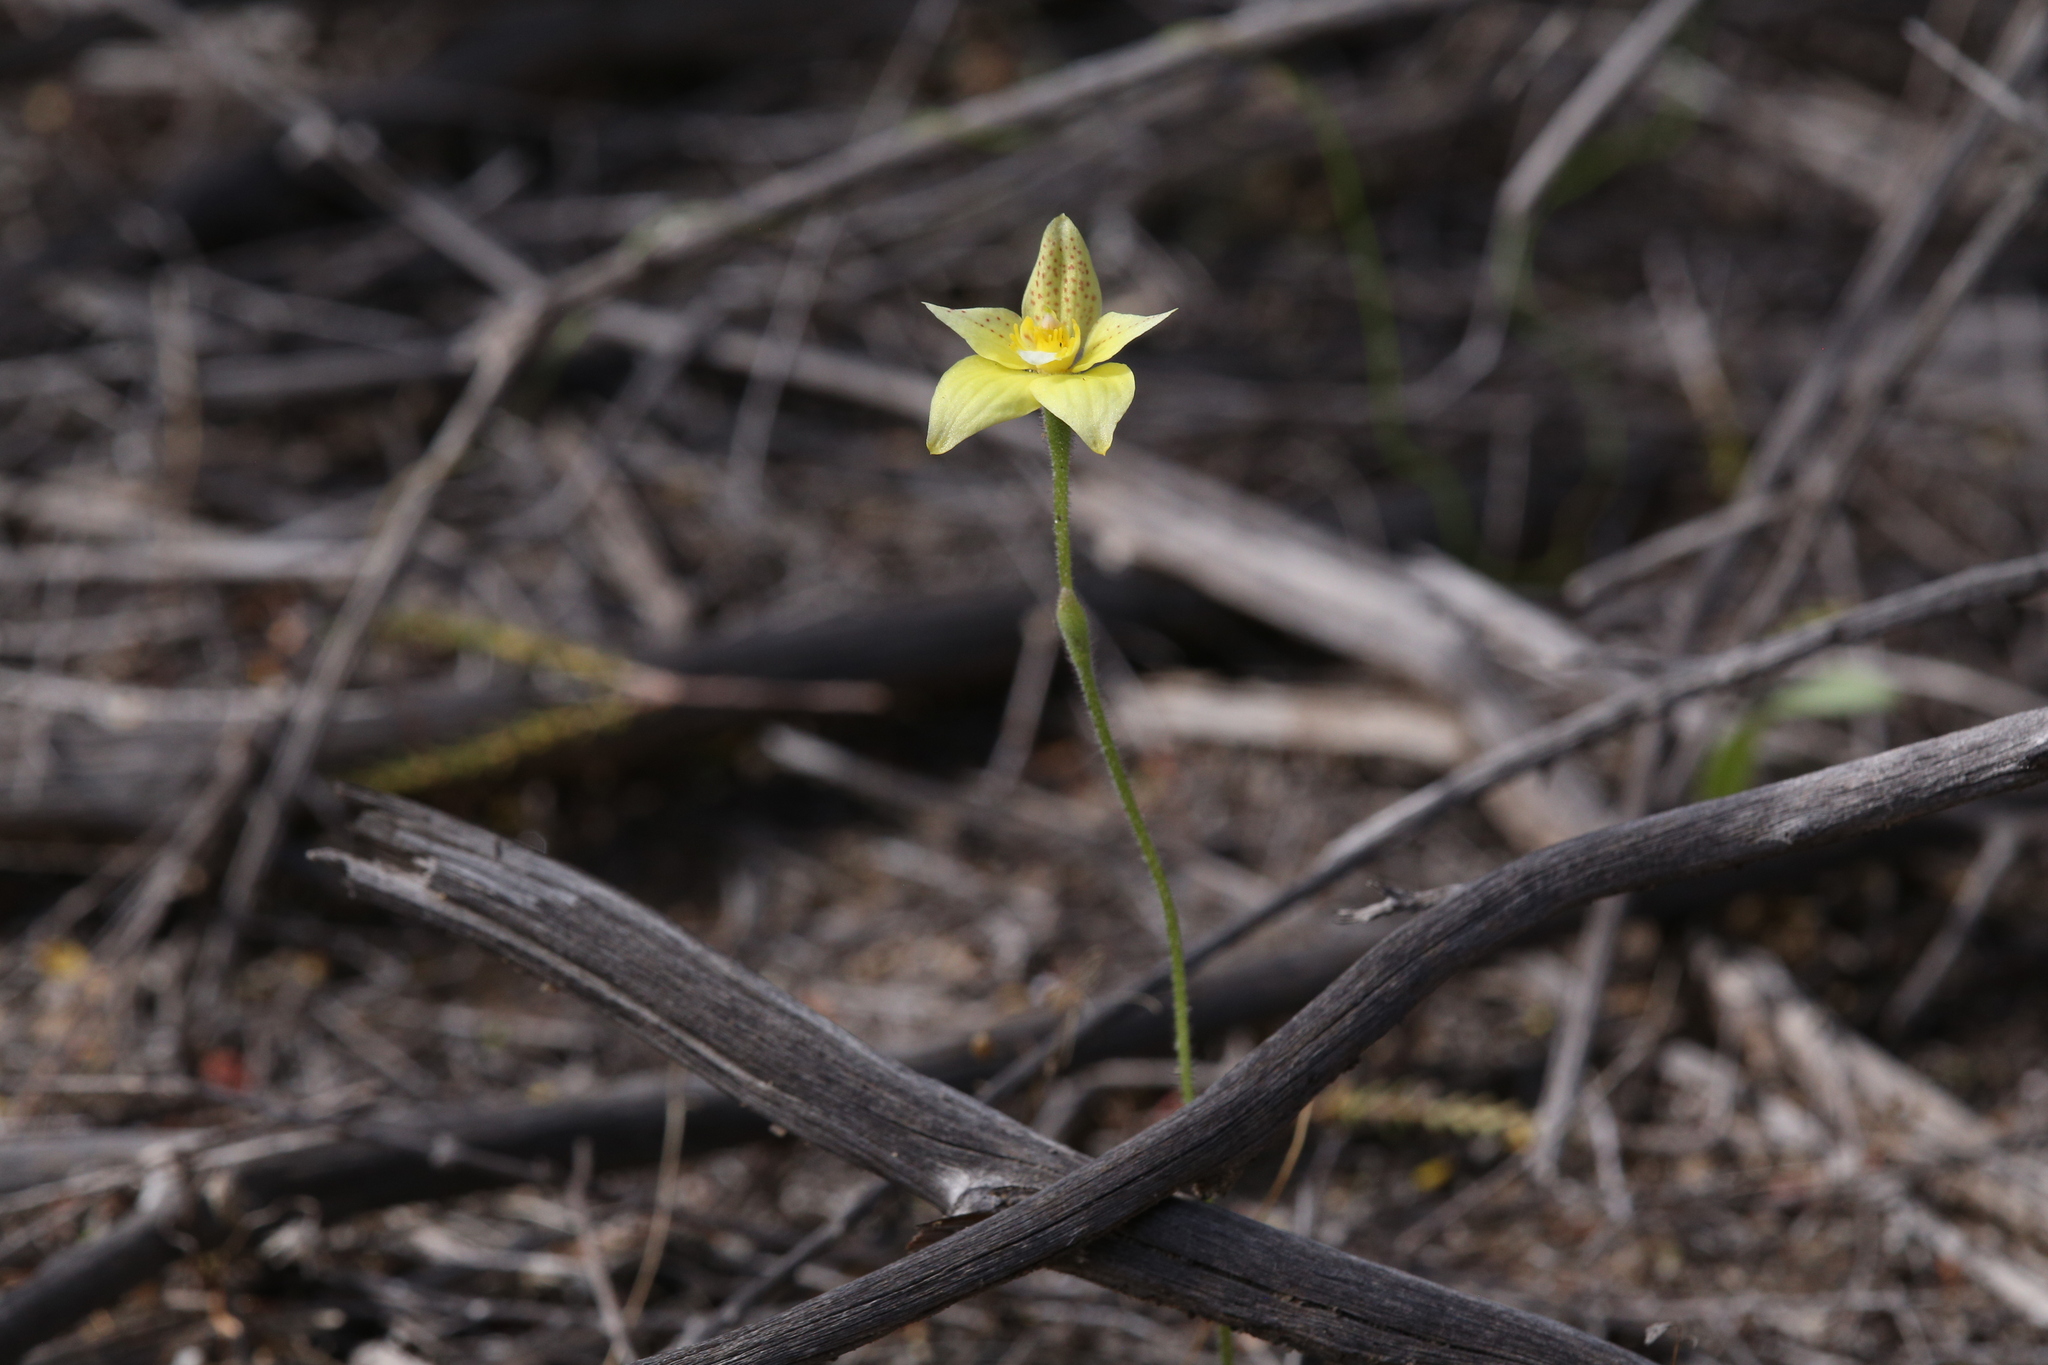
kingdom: Plantae
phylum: Tracheophyta
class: Liliopsida
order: Asparagales
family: Orchidaceae
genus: Caladenia
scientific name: Caladenia flava
